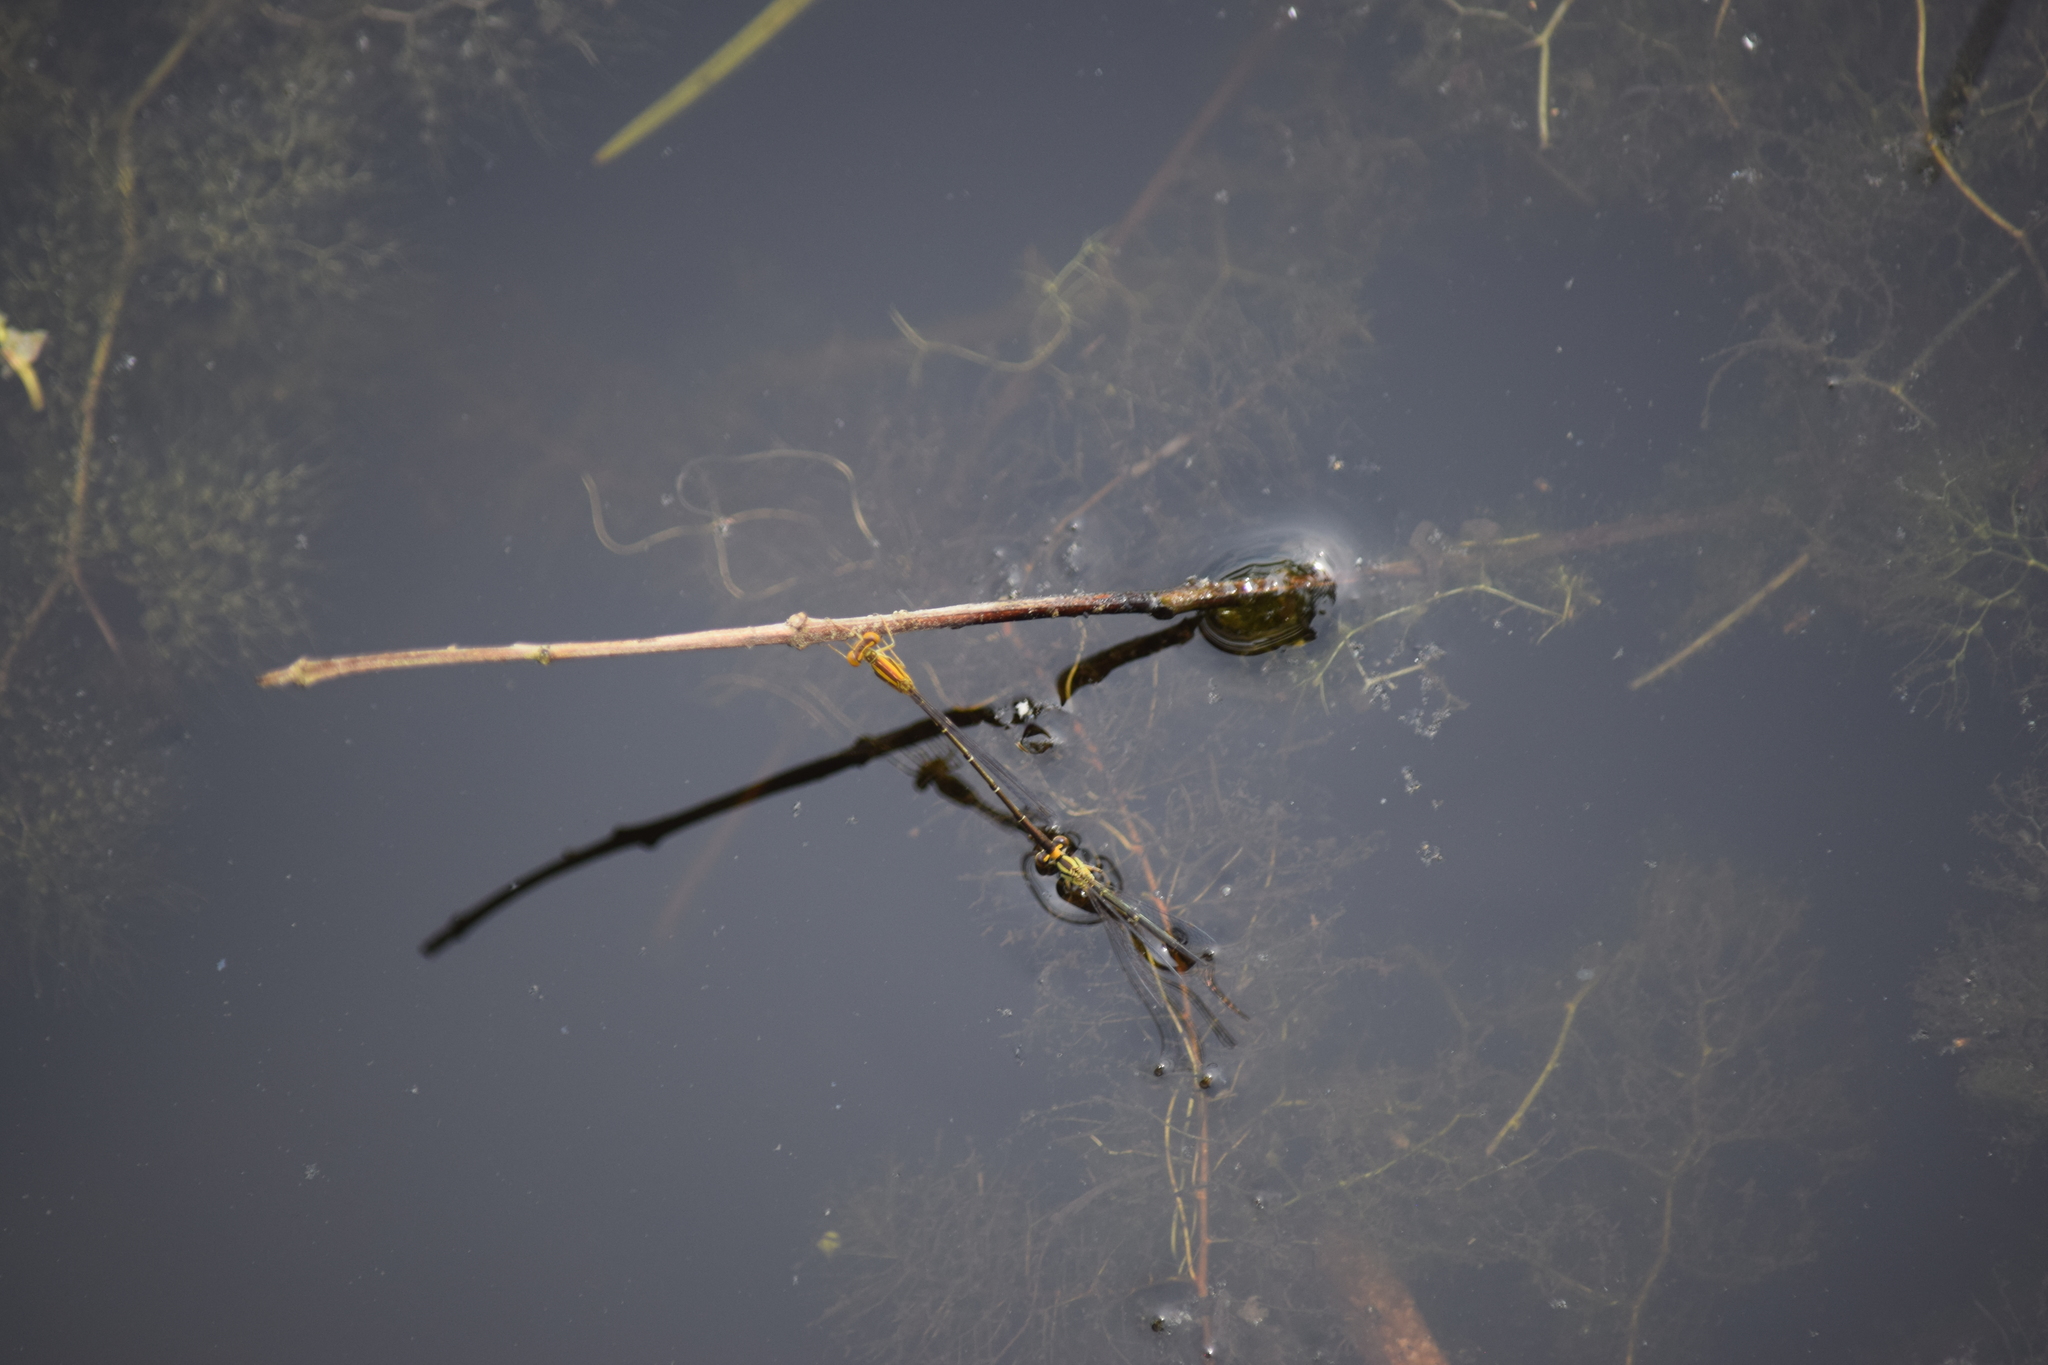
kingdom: Animalia
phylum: Arthropoda
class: Insecta
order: Odonata
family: Coenagrionidae
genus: Enallagma
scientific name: Enallagma signatum
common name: Orange bluet
